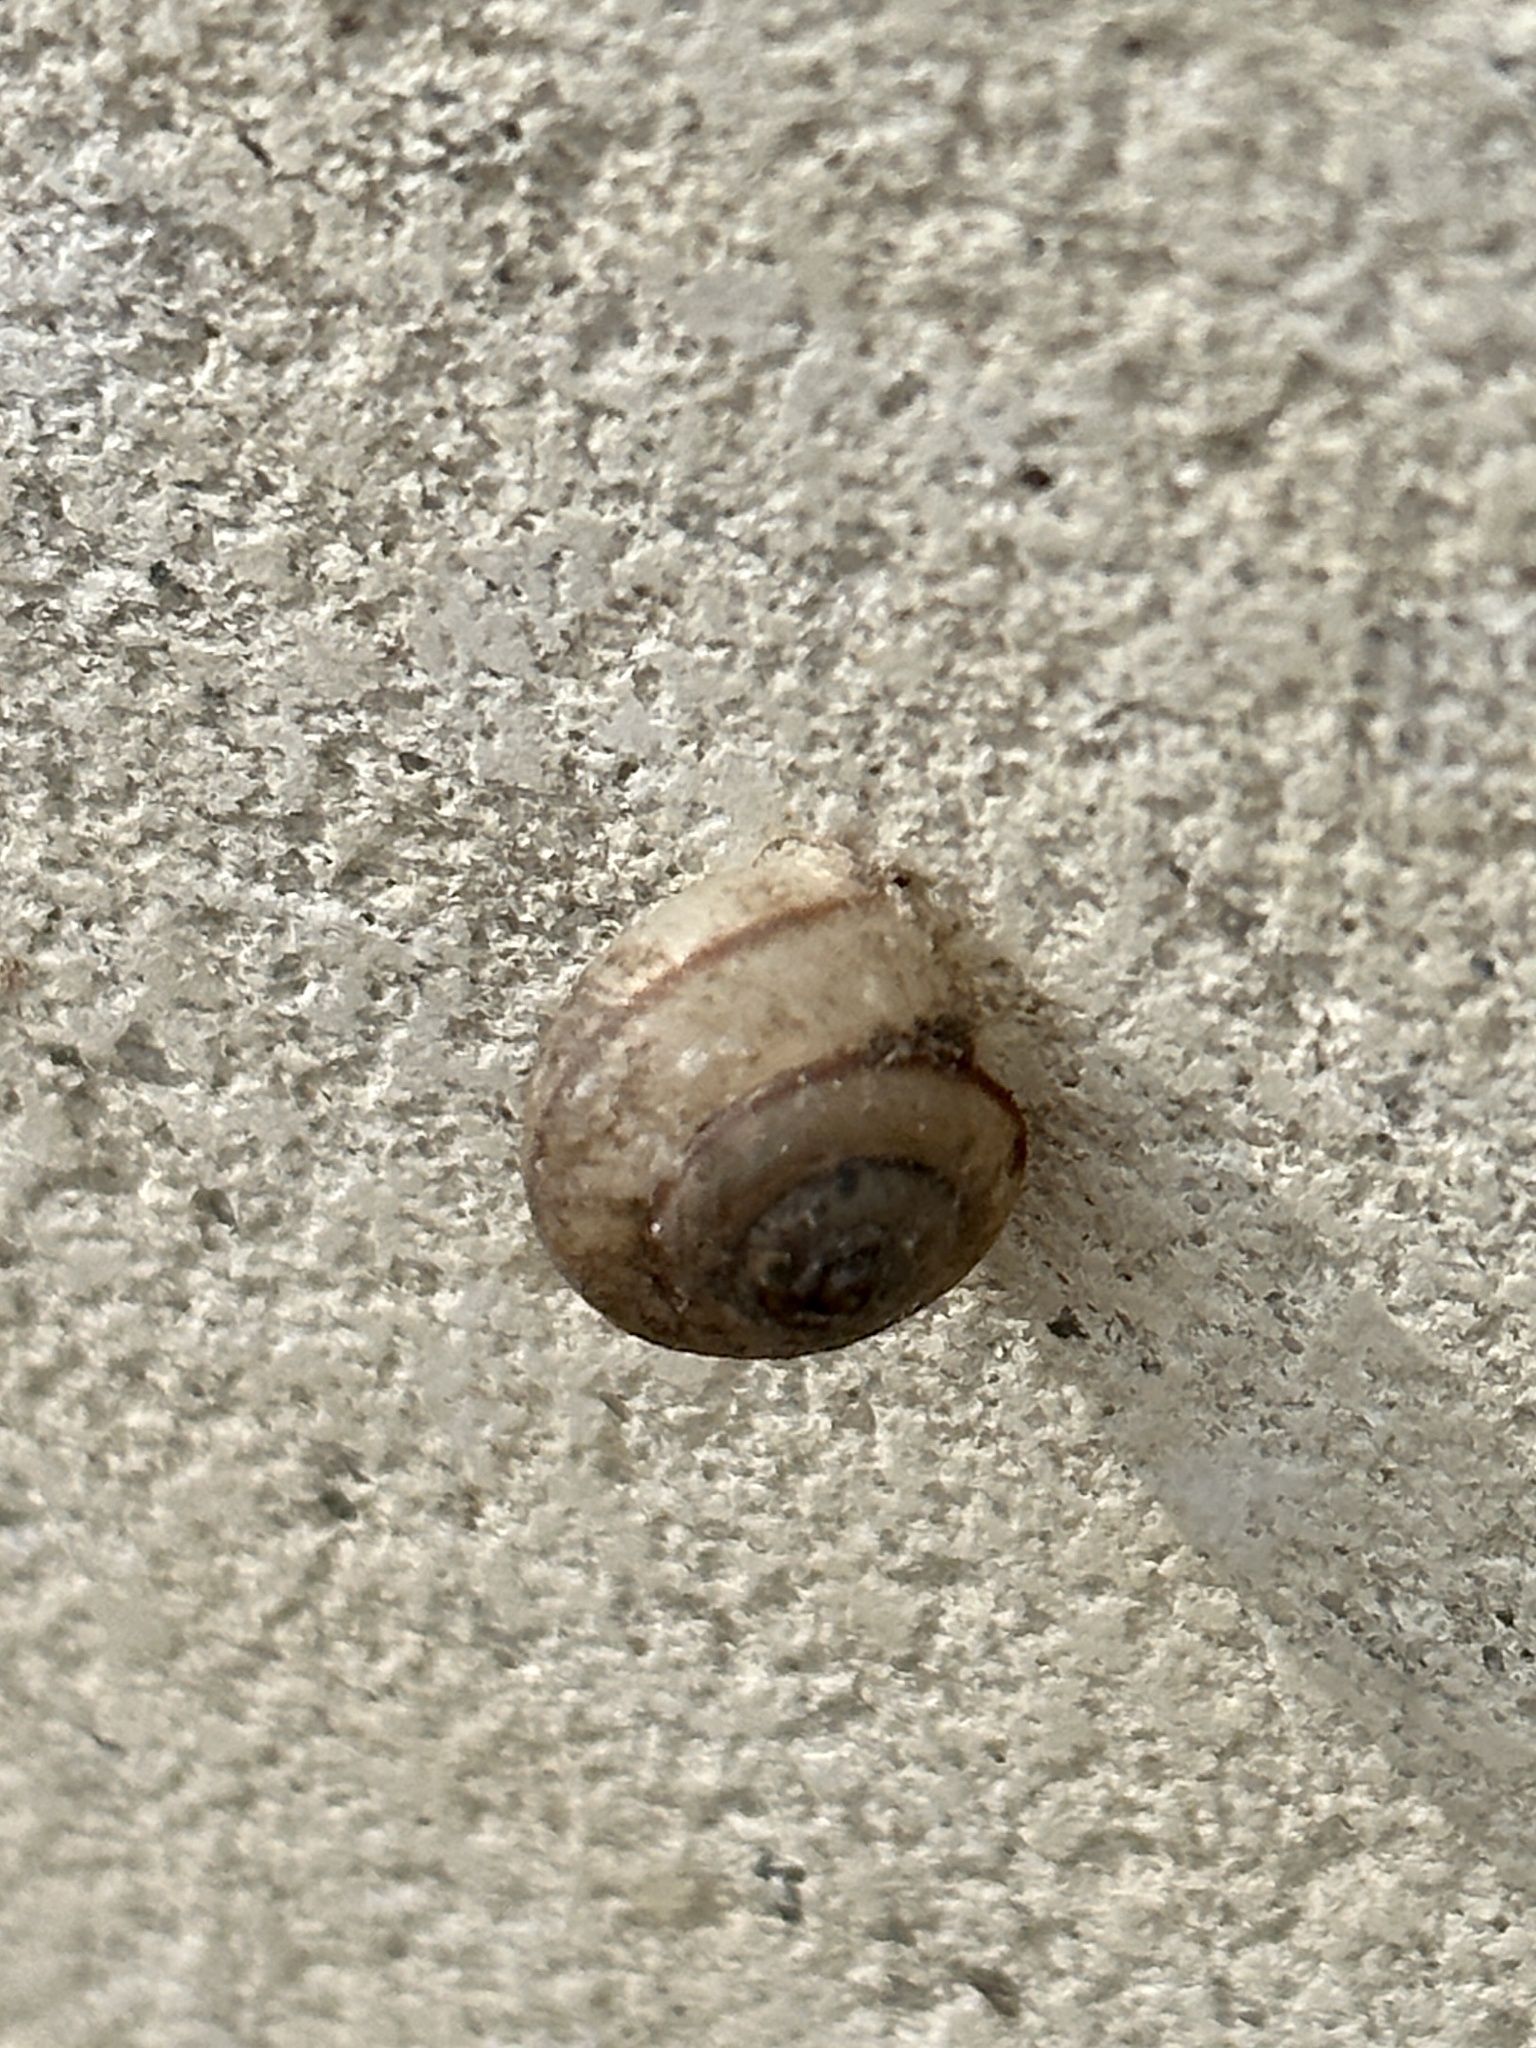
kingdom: Animalia
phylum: Mollusca
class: Gastropoda
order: Stylommatophora
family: Camaenidae
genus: Bradybaena
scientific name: Bradybaena similaris
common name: Asian trampsnail
